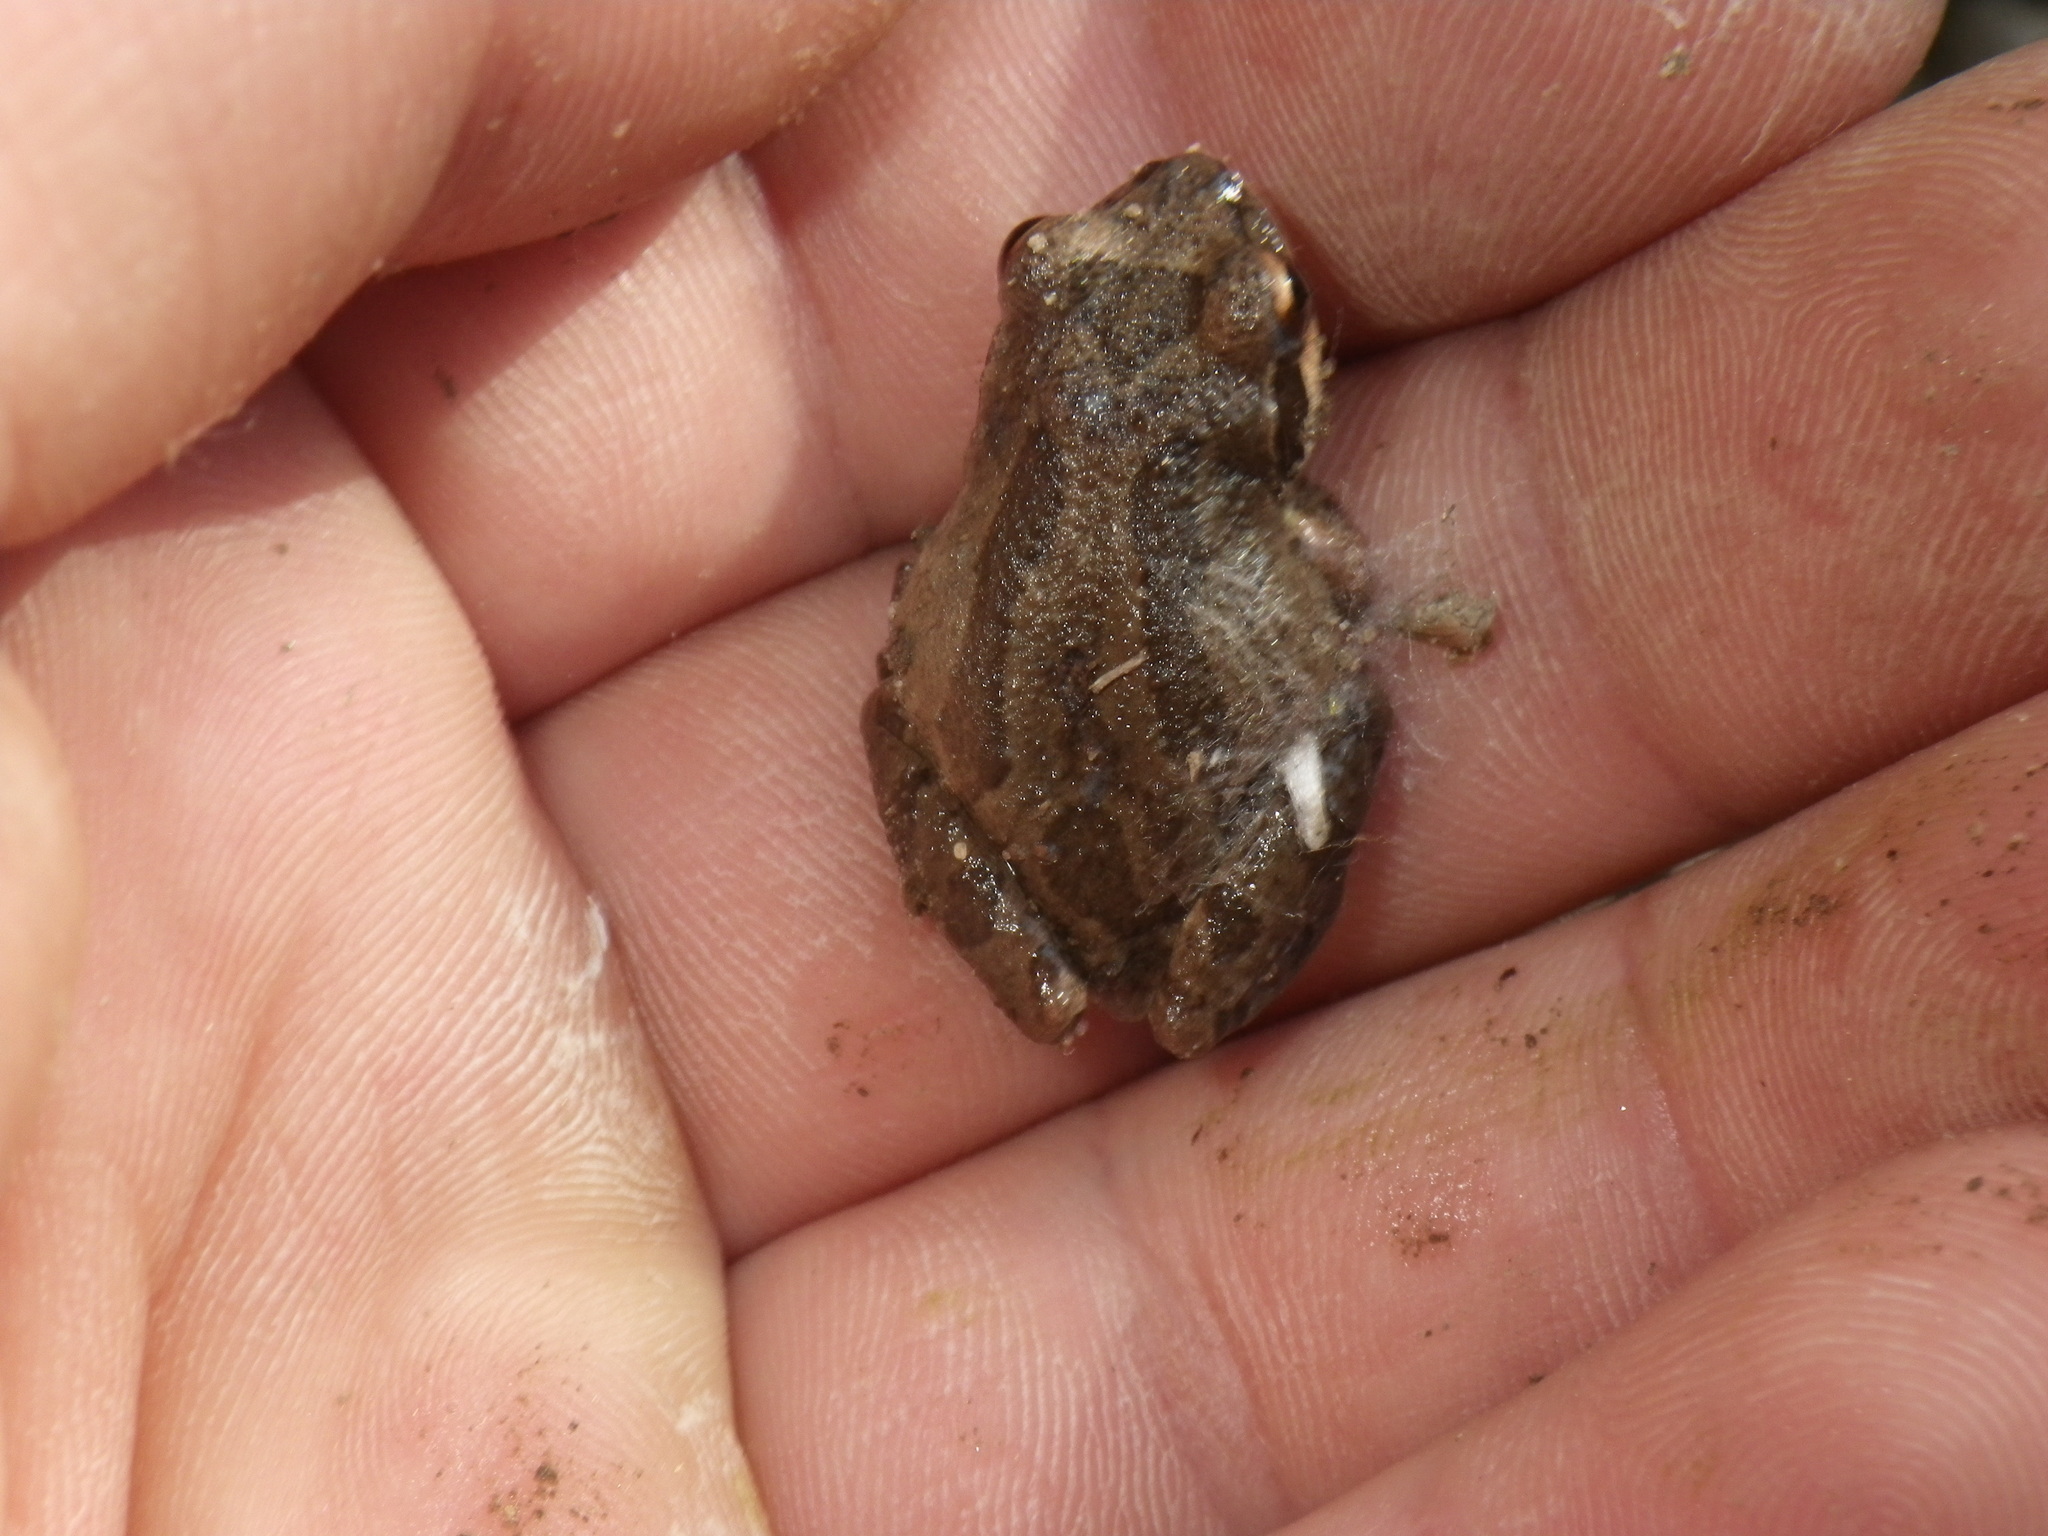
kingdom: Animalia
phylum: Chordata
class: Amphibia
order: Anura
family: Hylidae
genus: Pseudacris
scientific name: Pseudacris regilla
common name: Pacific chorus frog
